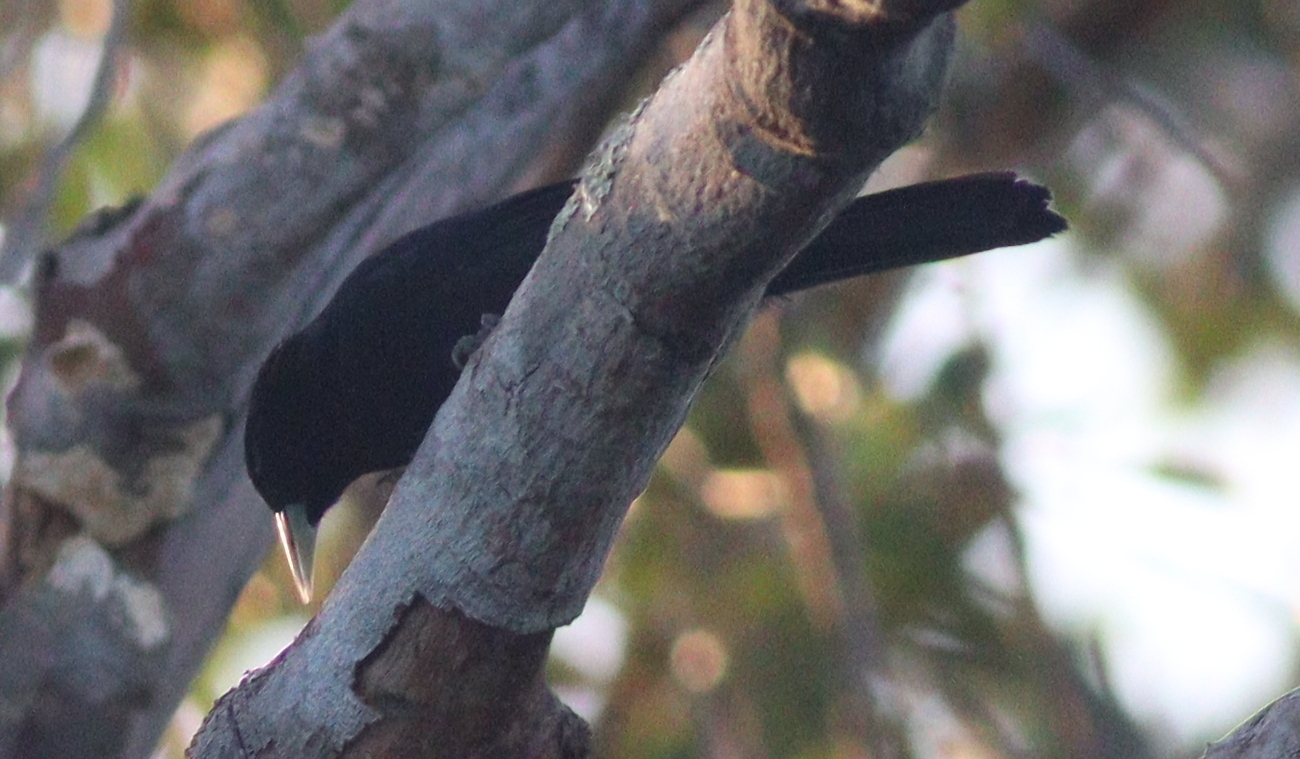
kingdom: Animalia
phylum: Chordata
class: Aves
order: Passeriformes
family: Icteridae
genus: Cacicus
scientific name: Cacicus solitarius
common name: Solitary cacique
